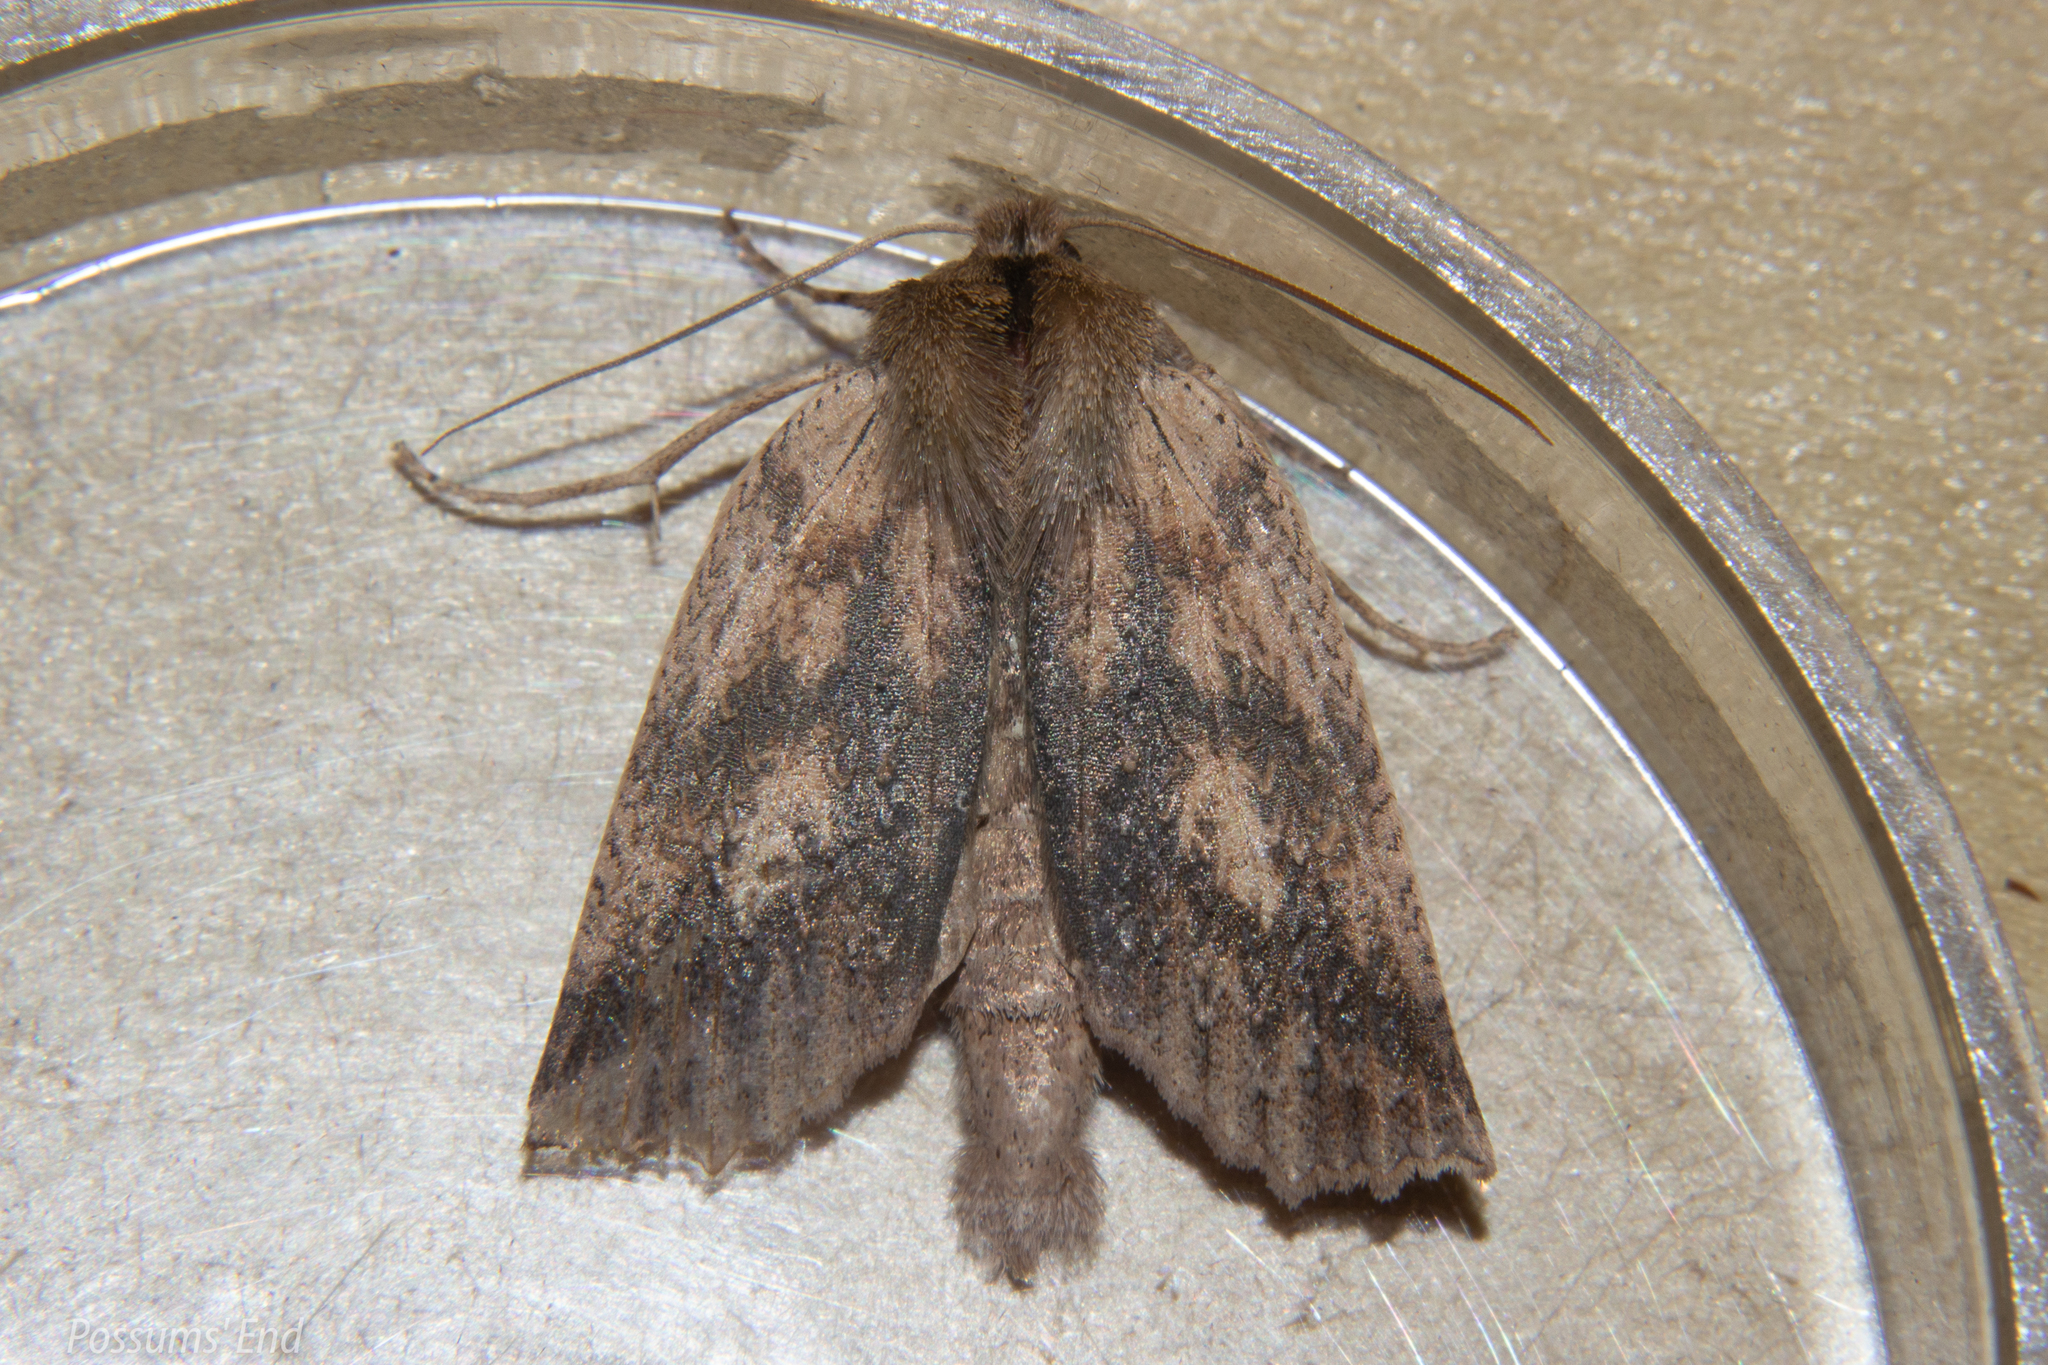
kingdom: Animalia
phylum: Arthropoda
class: Insecta
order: Lepidoptera
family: Geometridae
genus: Declana
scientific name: Declana leptomera
